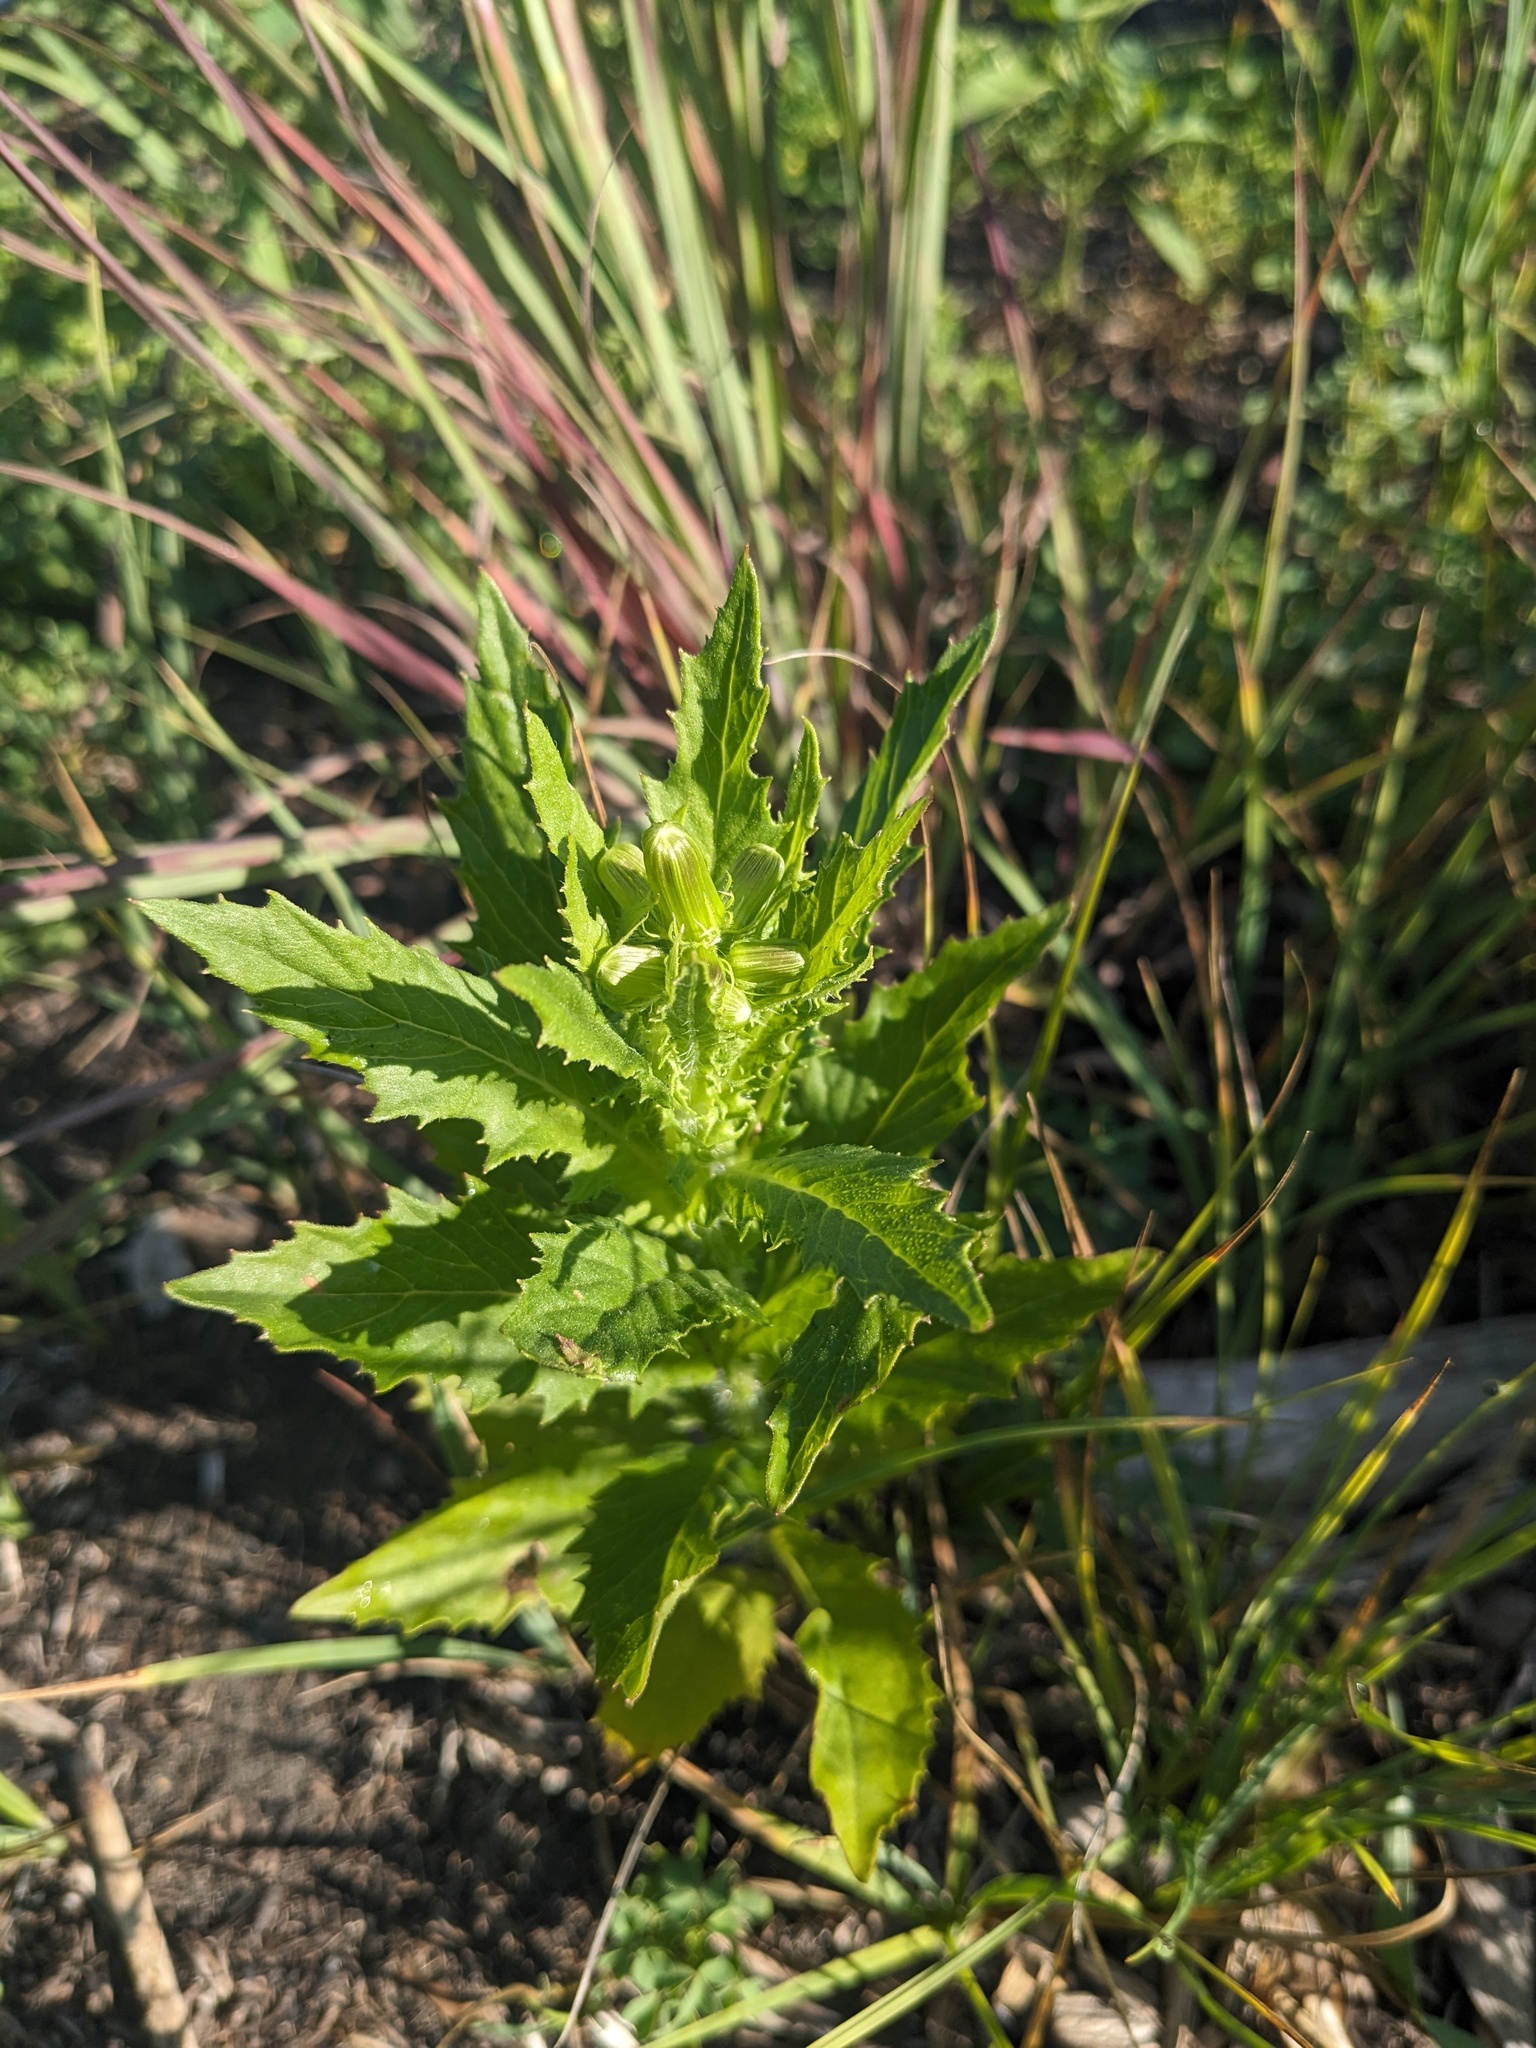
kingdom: Plantae
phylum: Tracheophyta
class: Magnoliopsida
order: Asterales
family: Asteraceae
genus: Erechtites
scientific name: Erechtites hieraciifolius
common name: American burnweed
